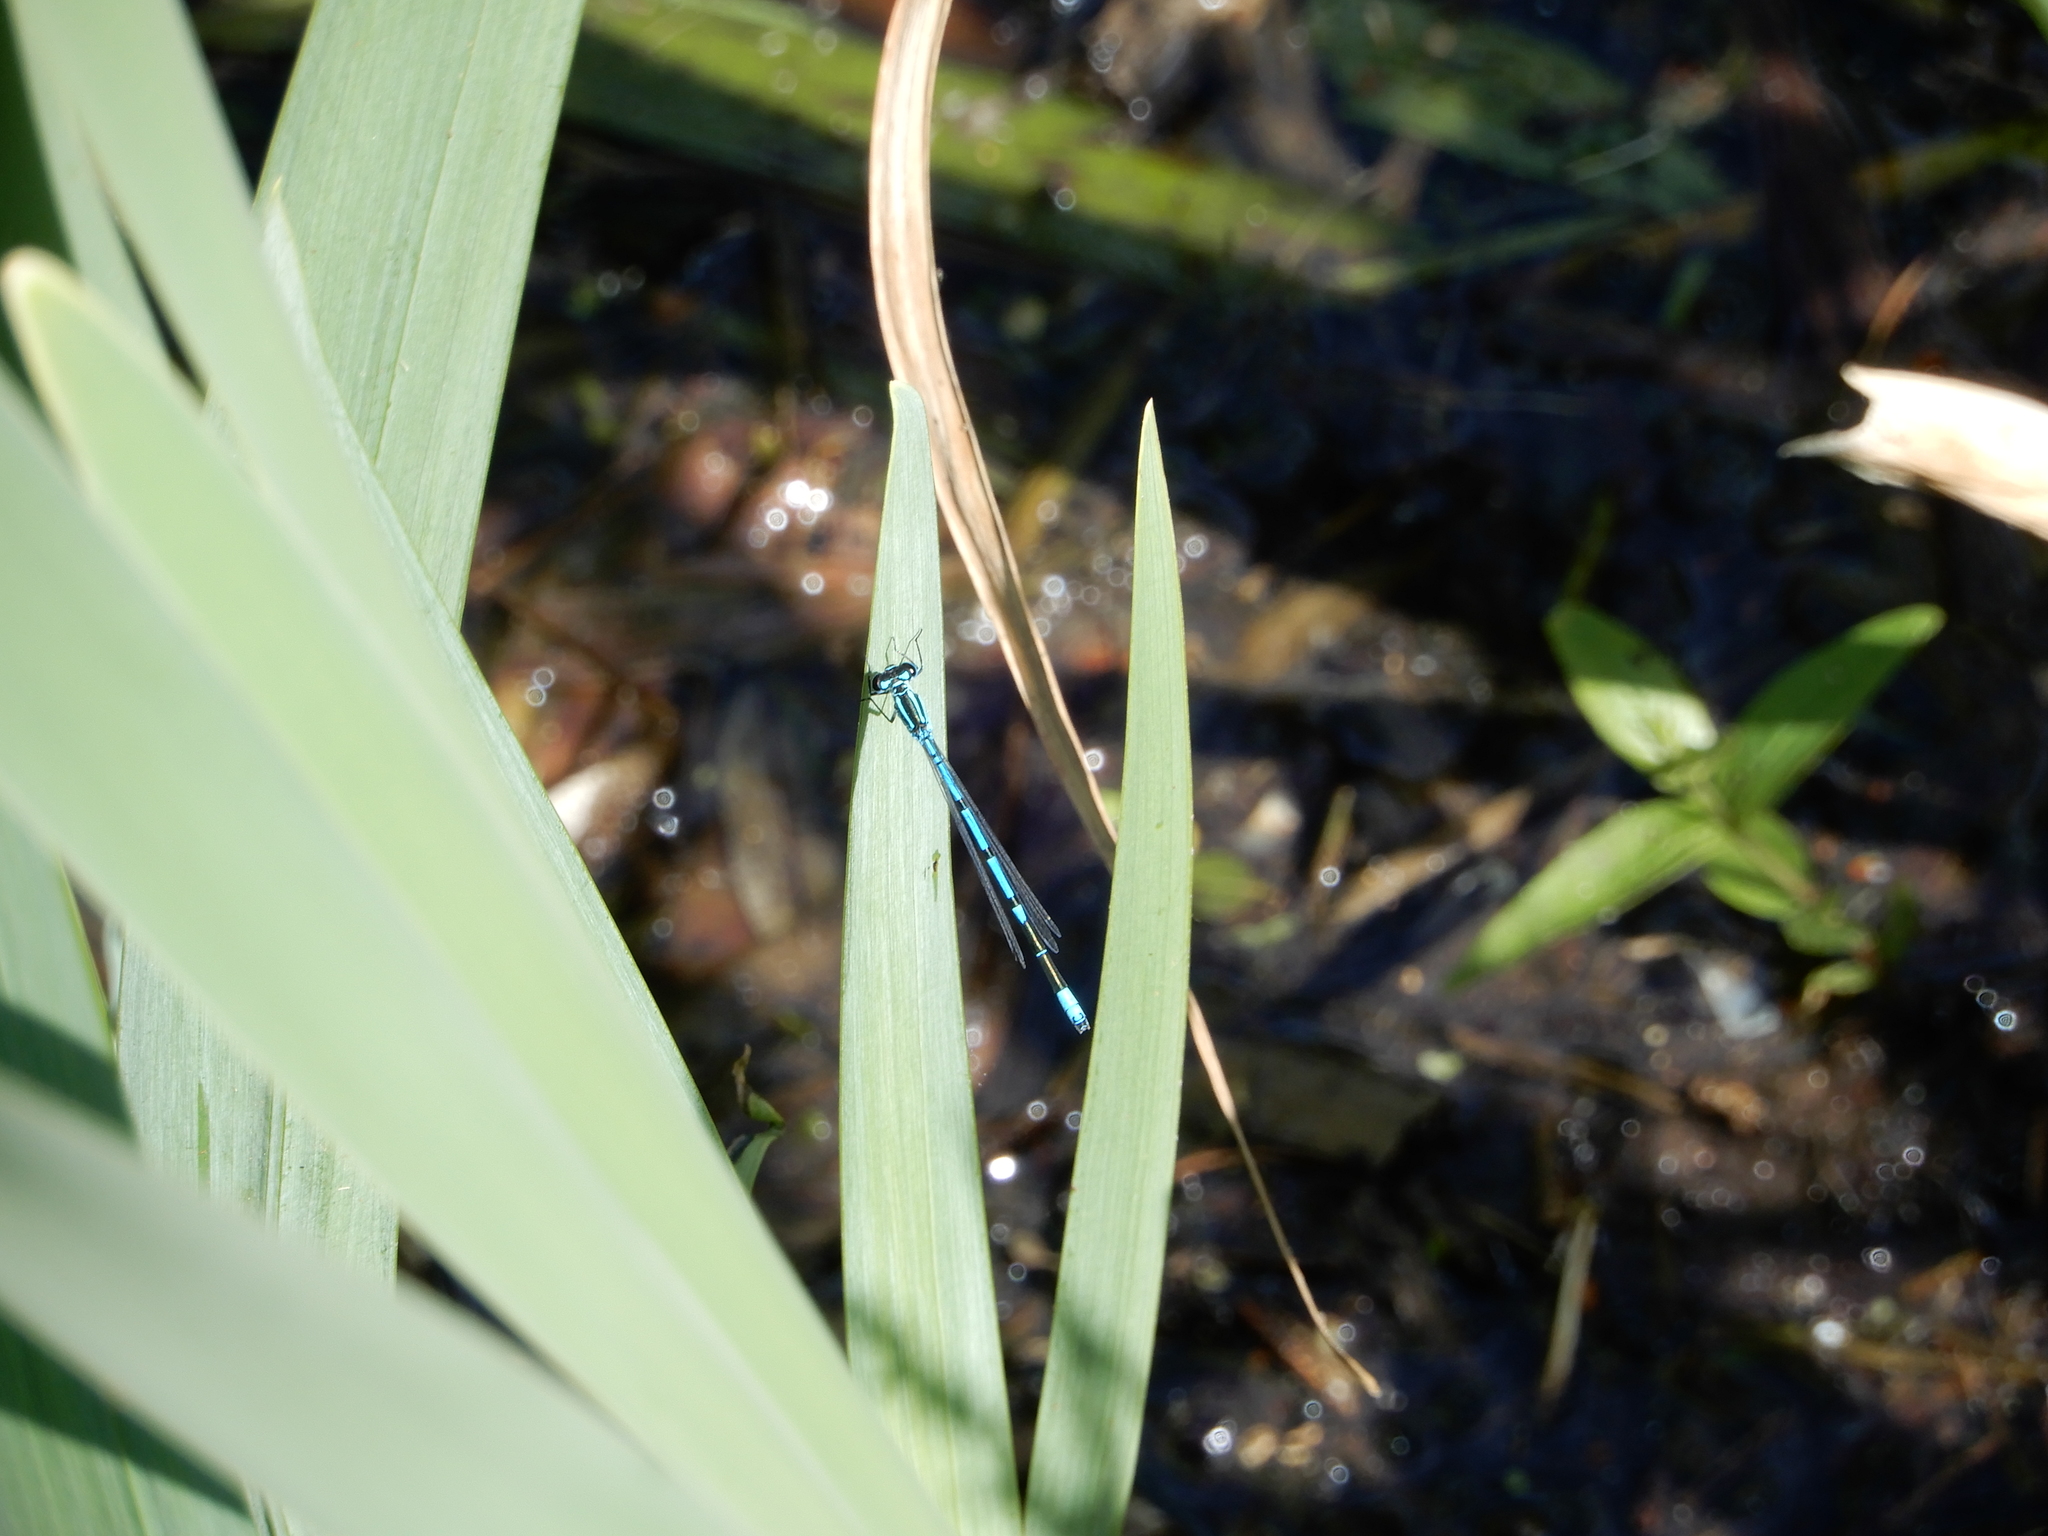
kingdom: Animalia
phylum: Arthropoda
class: Insecta
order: Odonata
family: Coenagrionidae
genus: Coenagrion
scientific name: Coenagrion puella
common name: Azure damselfly
